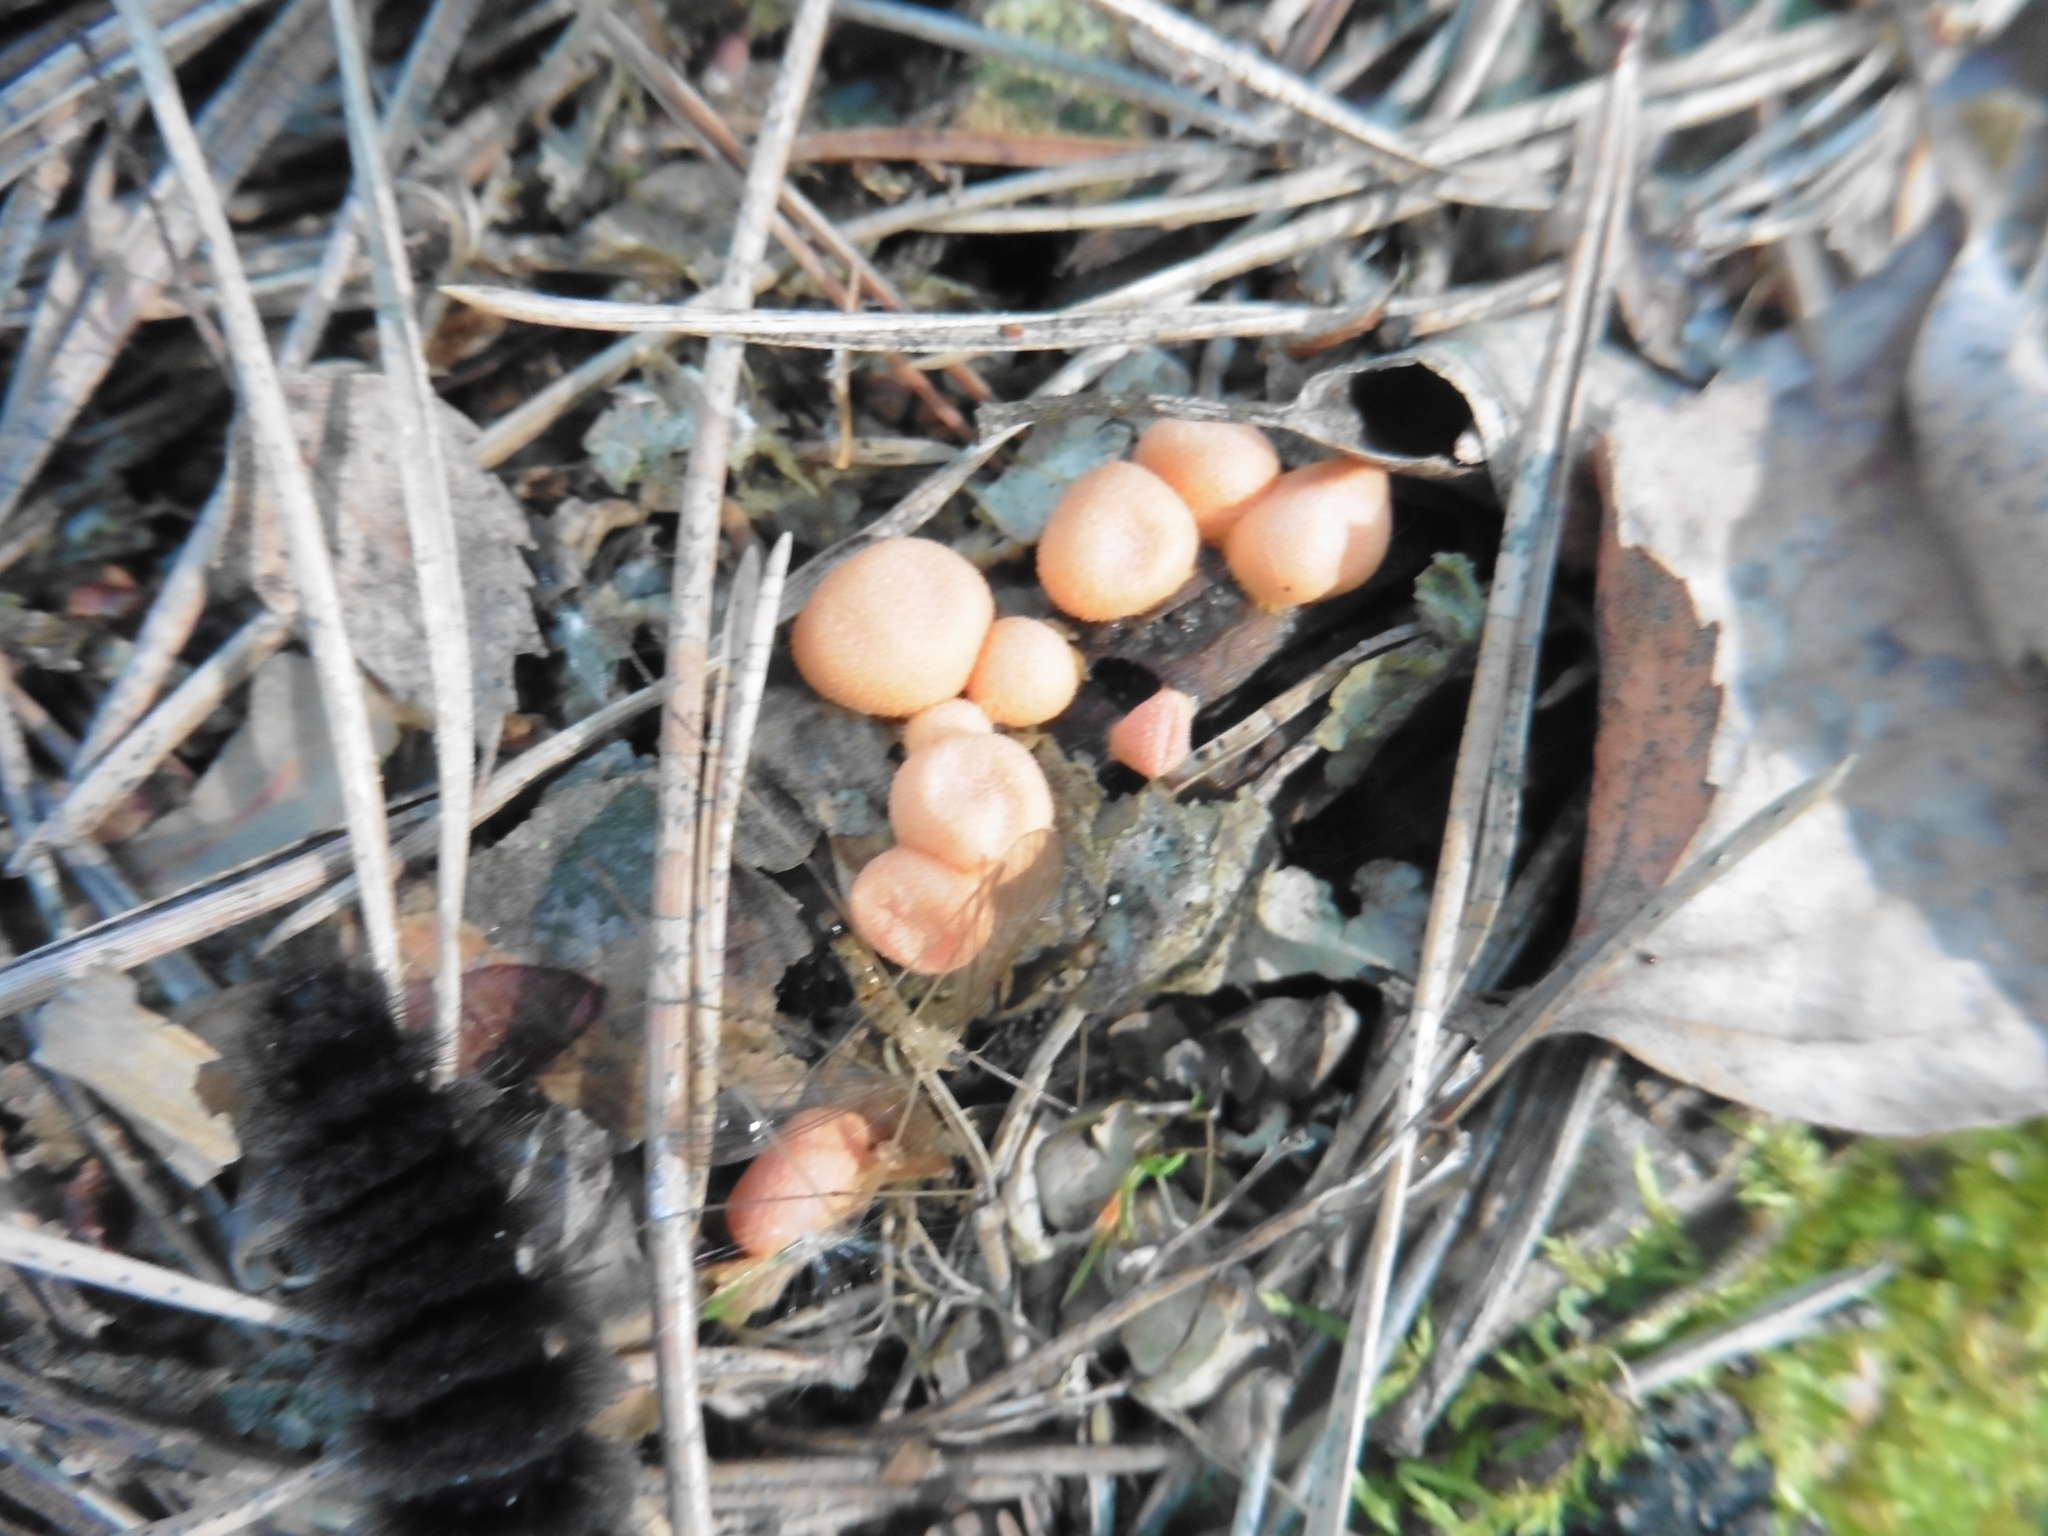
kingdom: Protozoa
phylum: Mycetozoa
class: Myxomycetes
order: Cribrariales
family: Tubiferaceae
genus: Lycogala
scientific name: Lycogala epidendrum
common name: Wolf's milk
